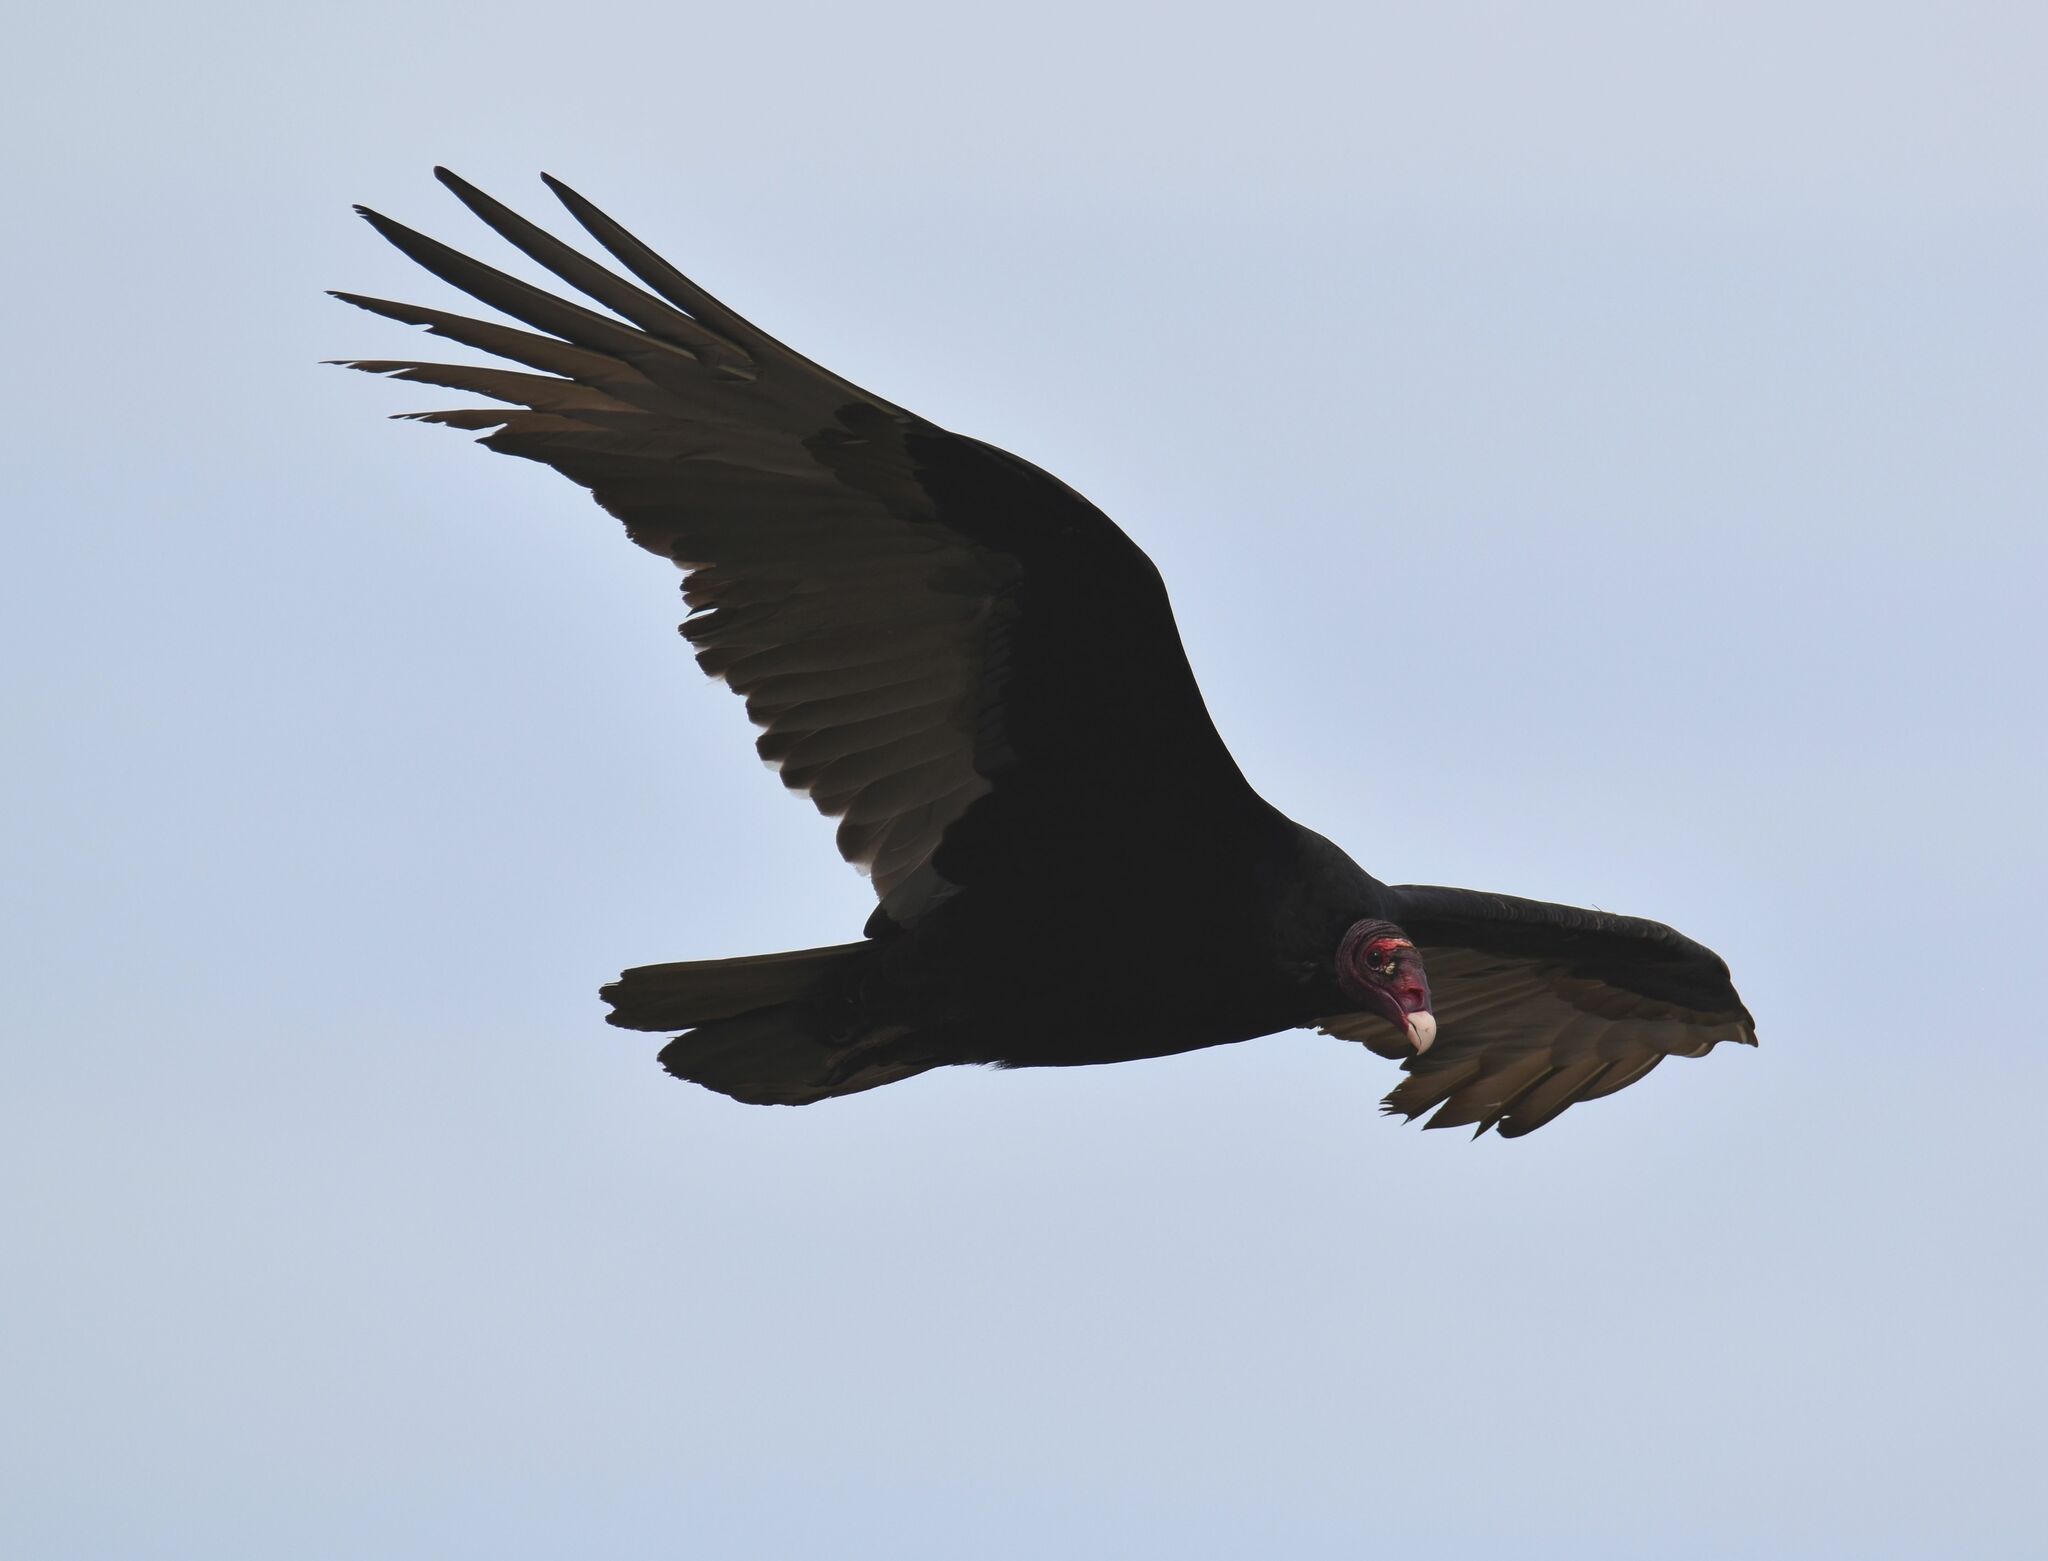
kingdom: Animalia
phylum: Chordata
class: Aves
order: Accipitriformes
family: Cathartidae
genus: Cathartes
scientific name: Cathartes aura
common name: Turkey vulture
